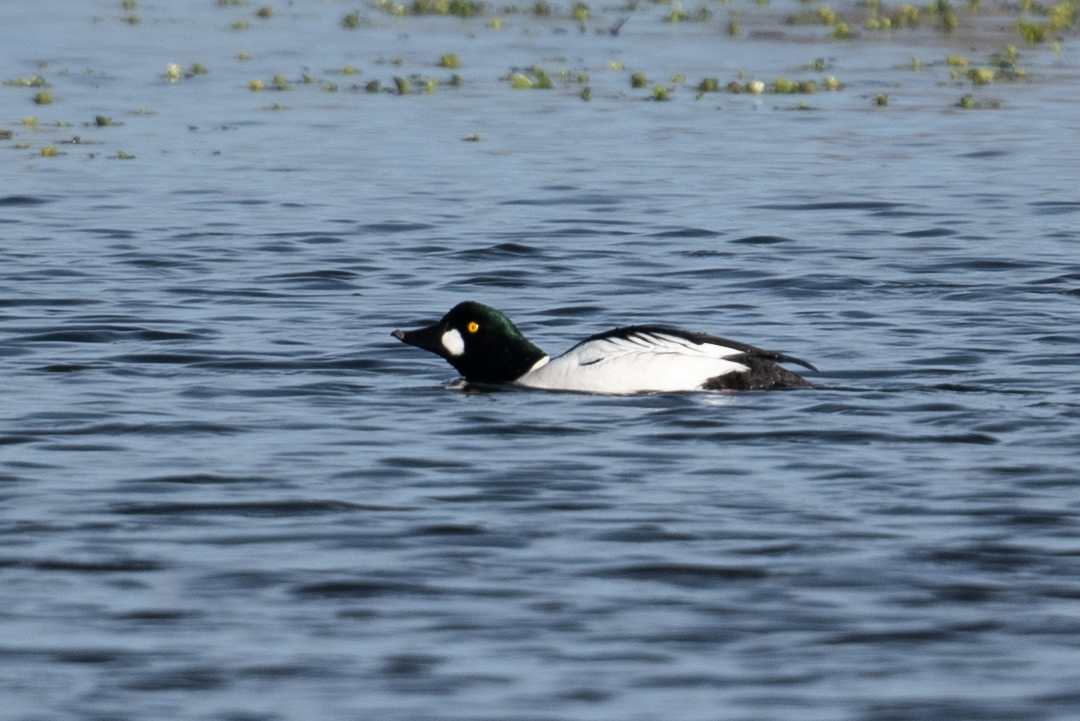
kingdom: Animalia
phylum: Chordata
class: Aves
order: Anseriformes
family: Anatidae
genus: Bucephala
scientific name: Bucephala clangula
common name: Common goldeneye
